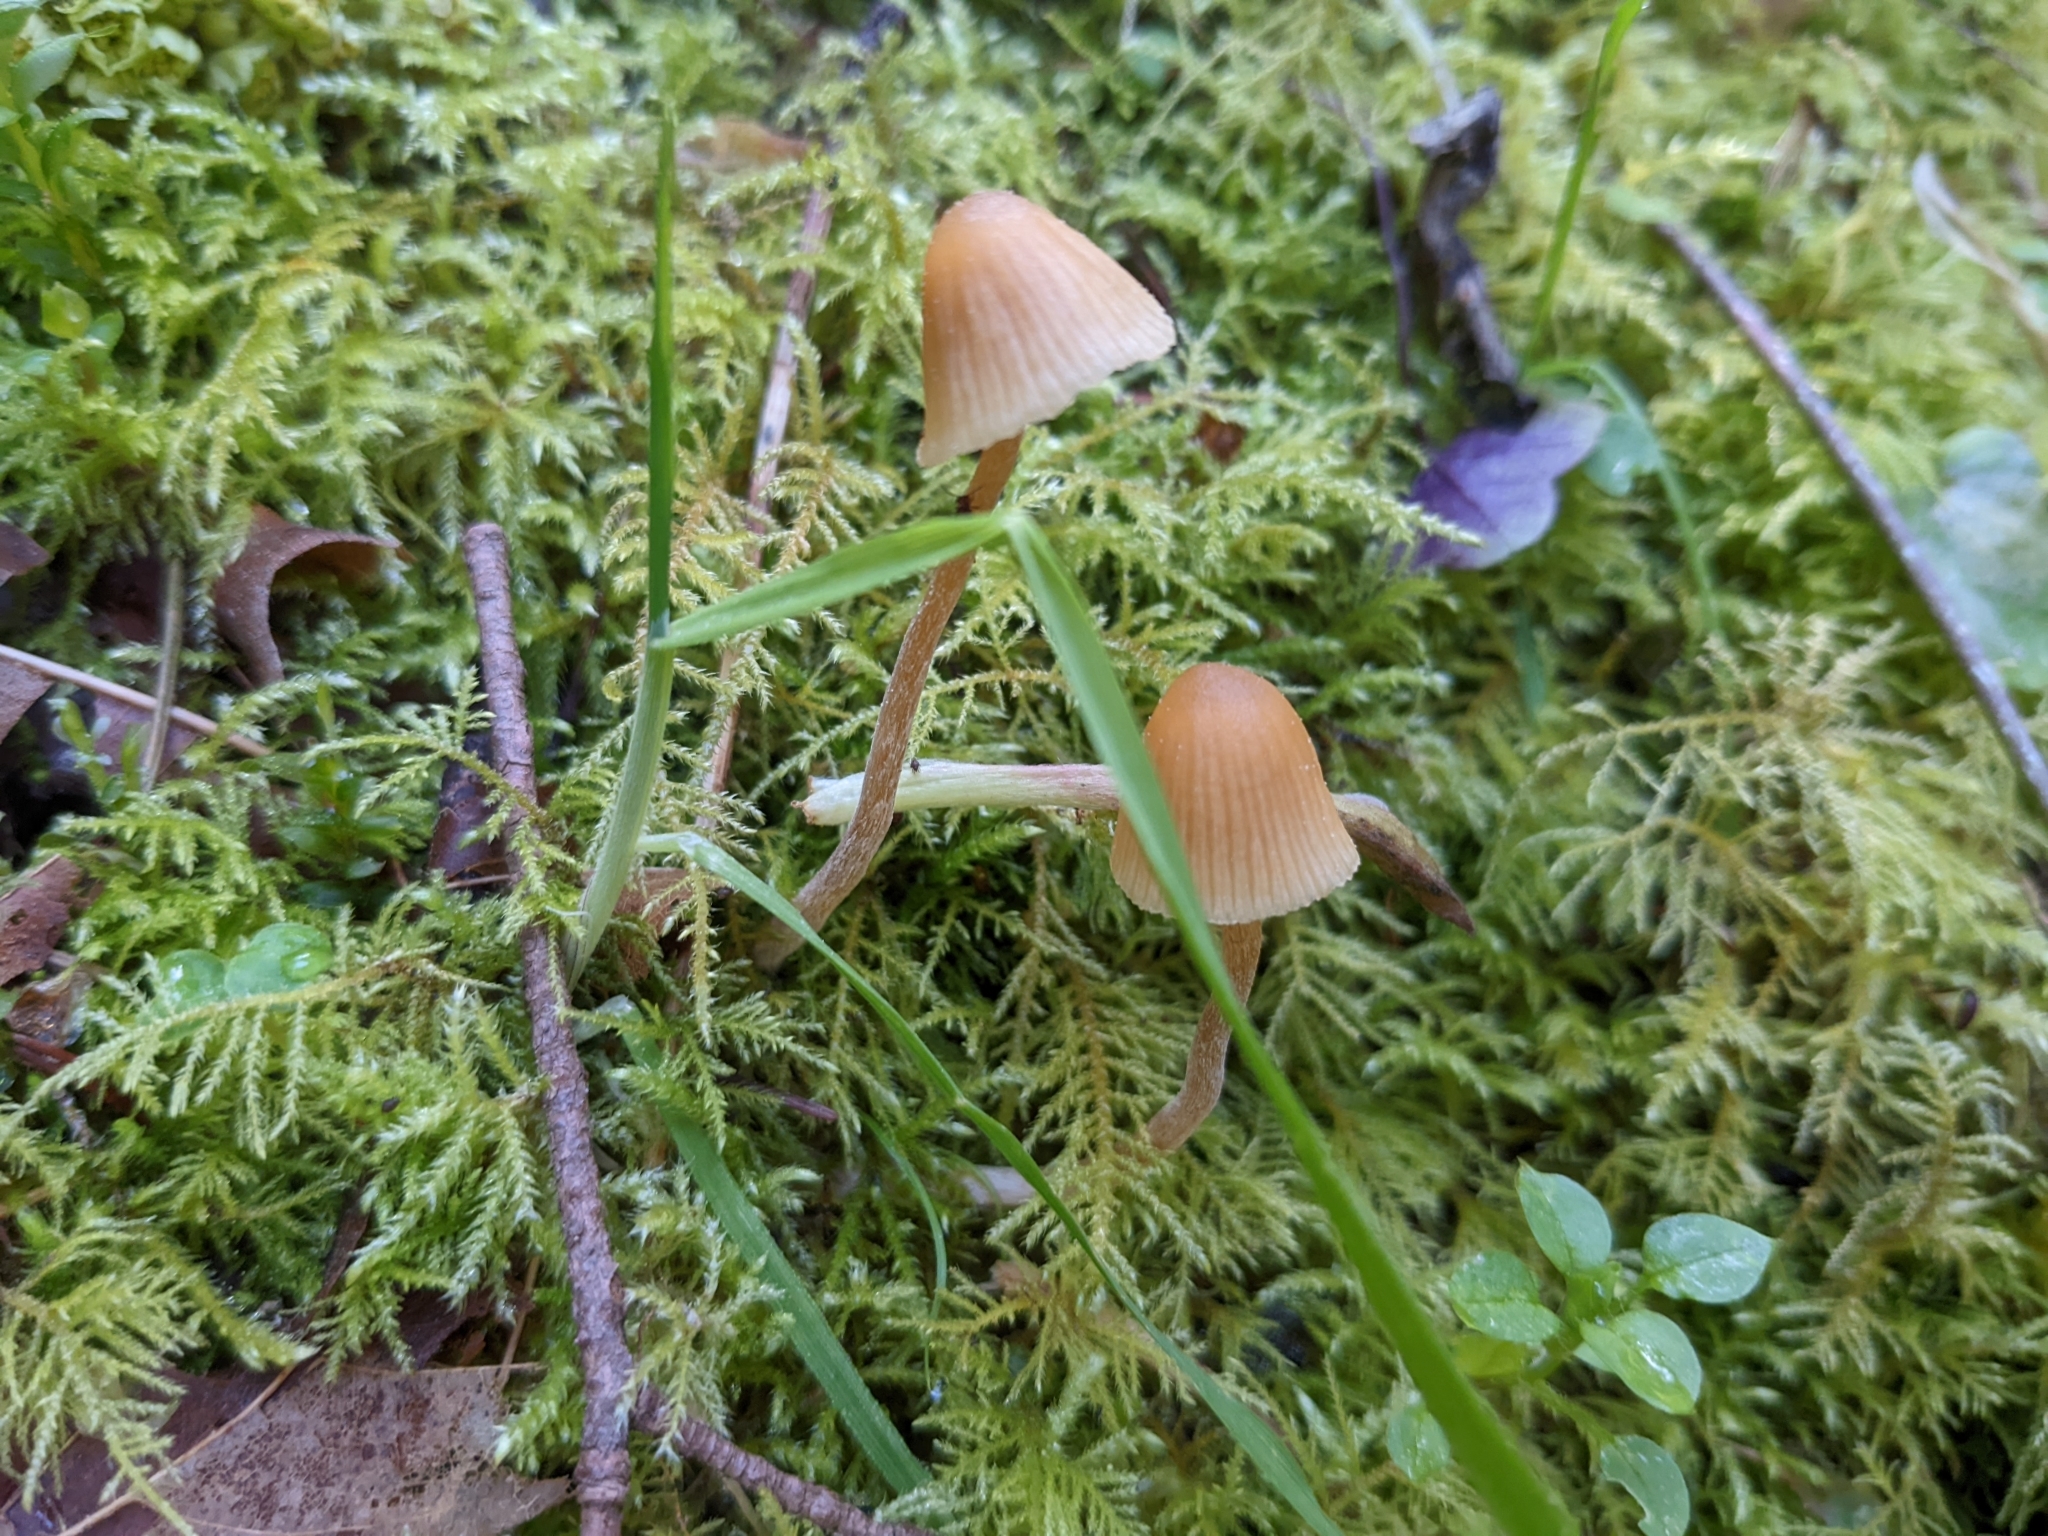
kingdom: Fungi
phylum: Basidiomycota
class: Agaricomycetes
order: Agaricales
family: Hymenogastraceae
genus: Galerina
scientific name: Galerina semilanceata
